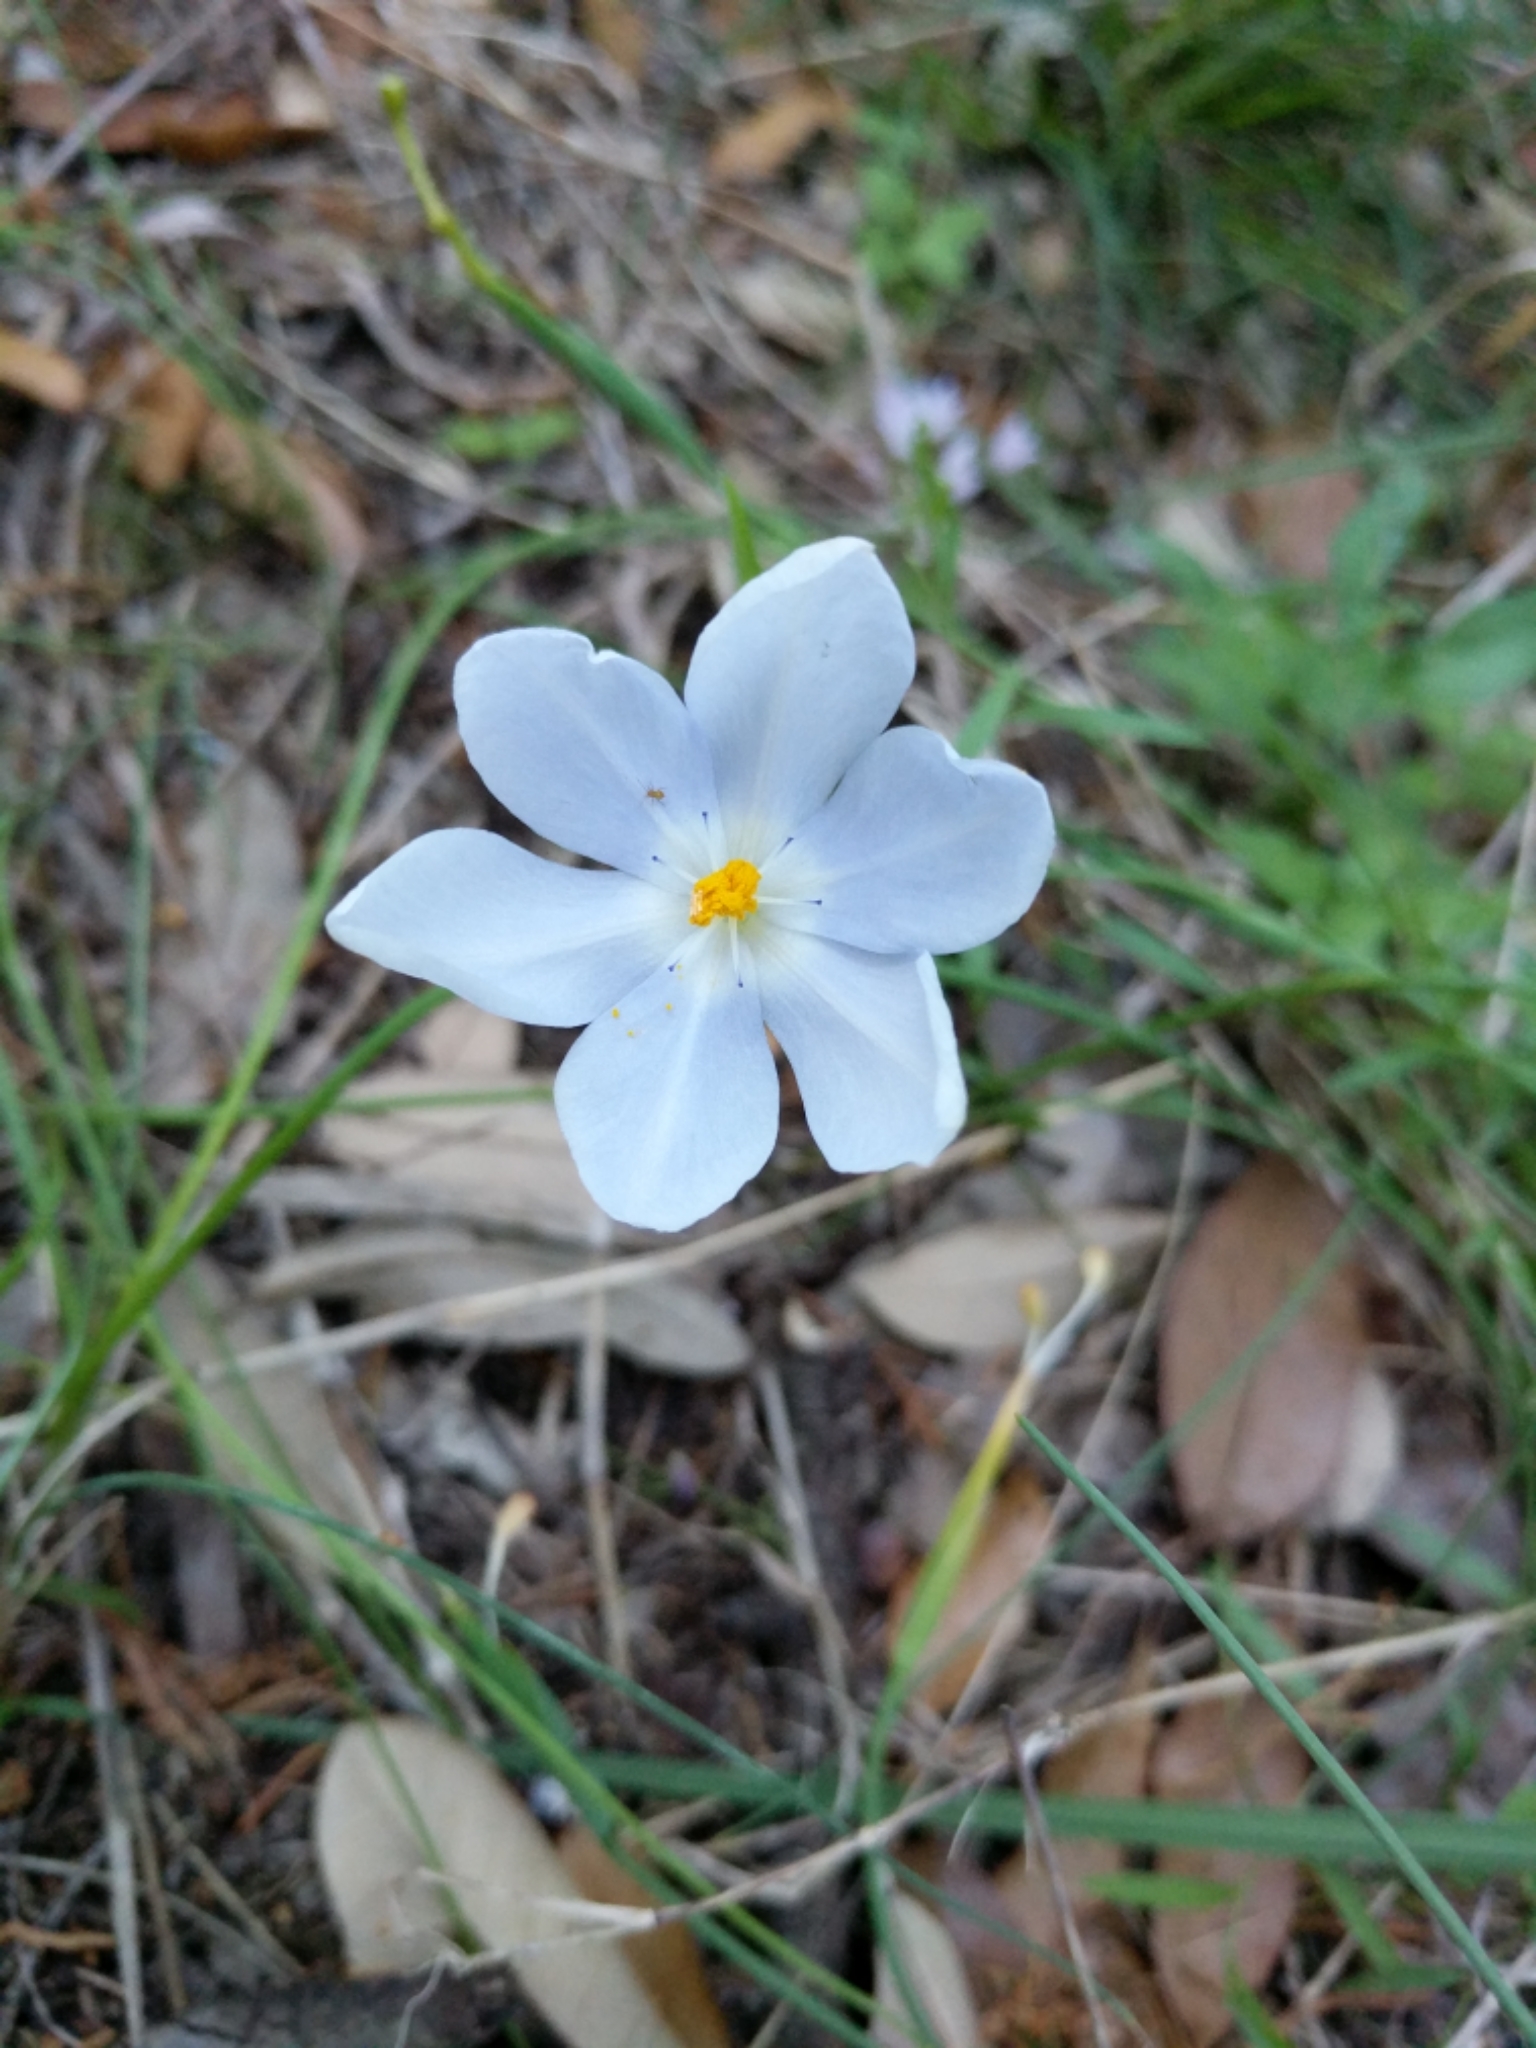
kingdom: Plantae
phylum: Tracheophyta
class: Liliopsida
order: Asparagales
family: Iridaceae
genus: Nemastylis
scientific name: Nemastylis geminiflora
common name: Prairie celestial
